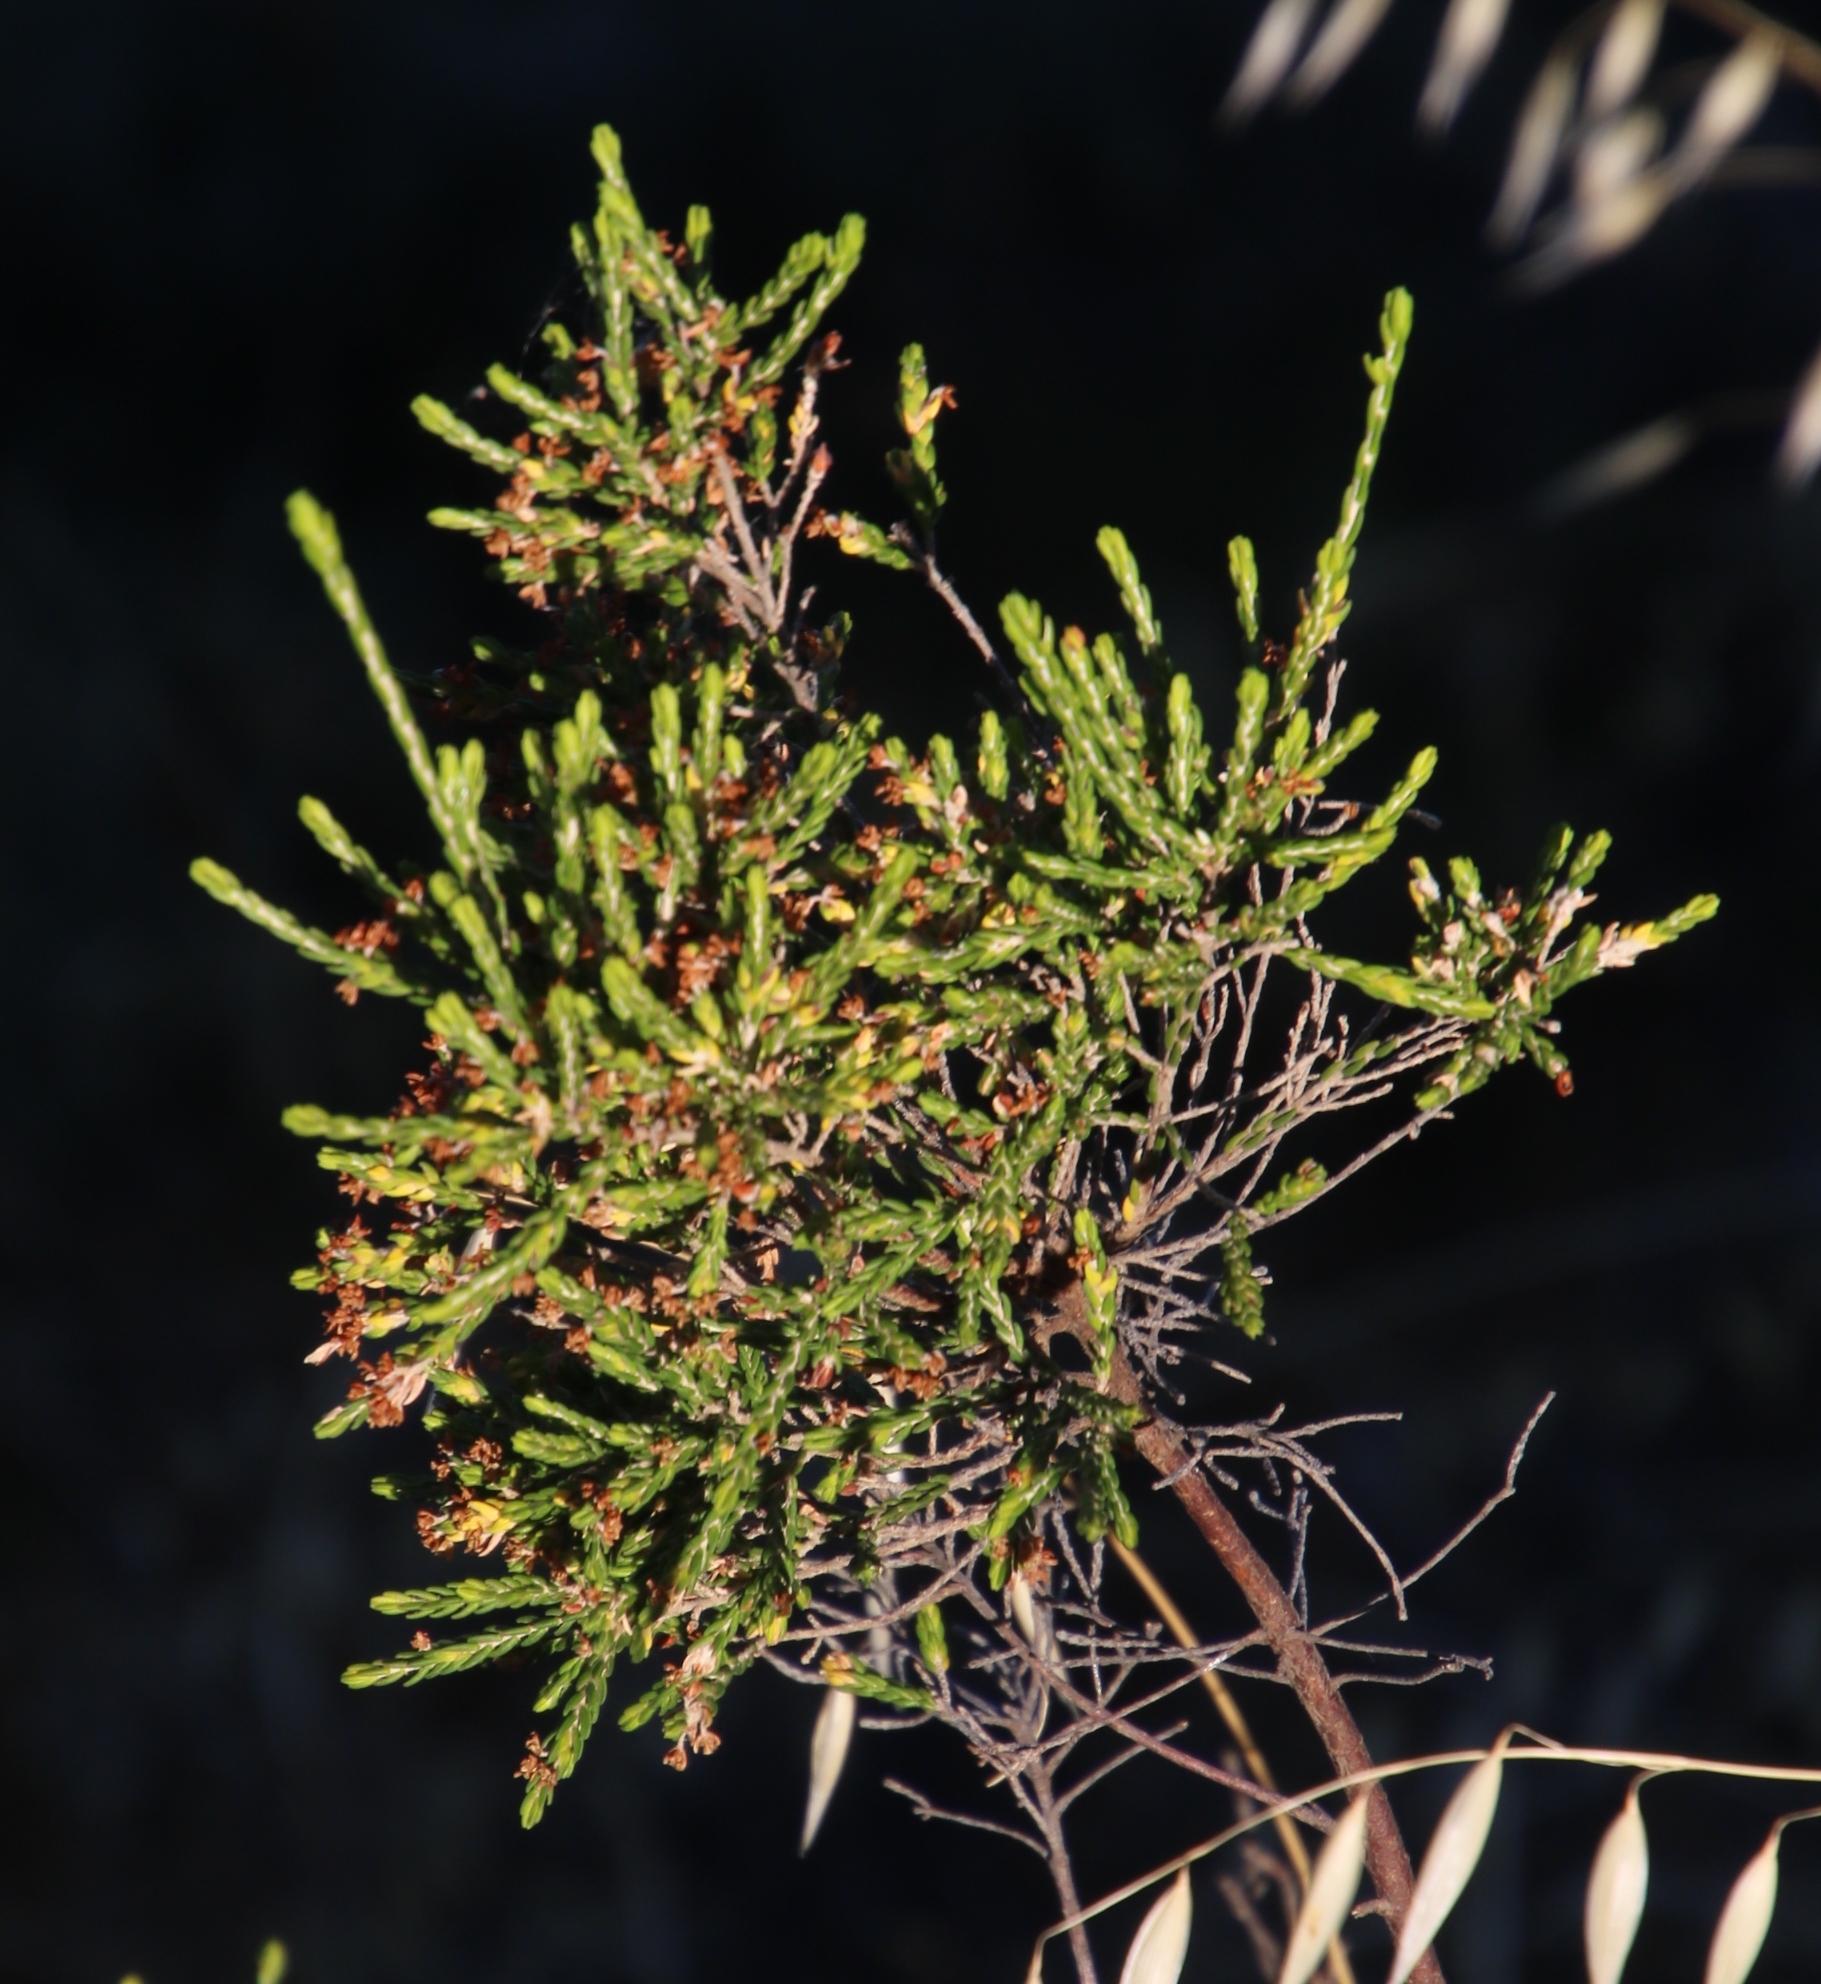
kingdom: Plantae
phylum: Tracheophyta
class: Magnoliopsida
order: Malvales
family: Thymelaeaceae
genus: Passerina
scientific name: Passerina corymbosa
